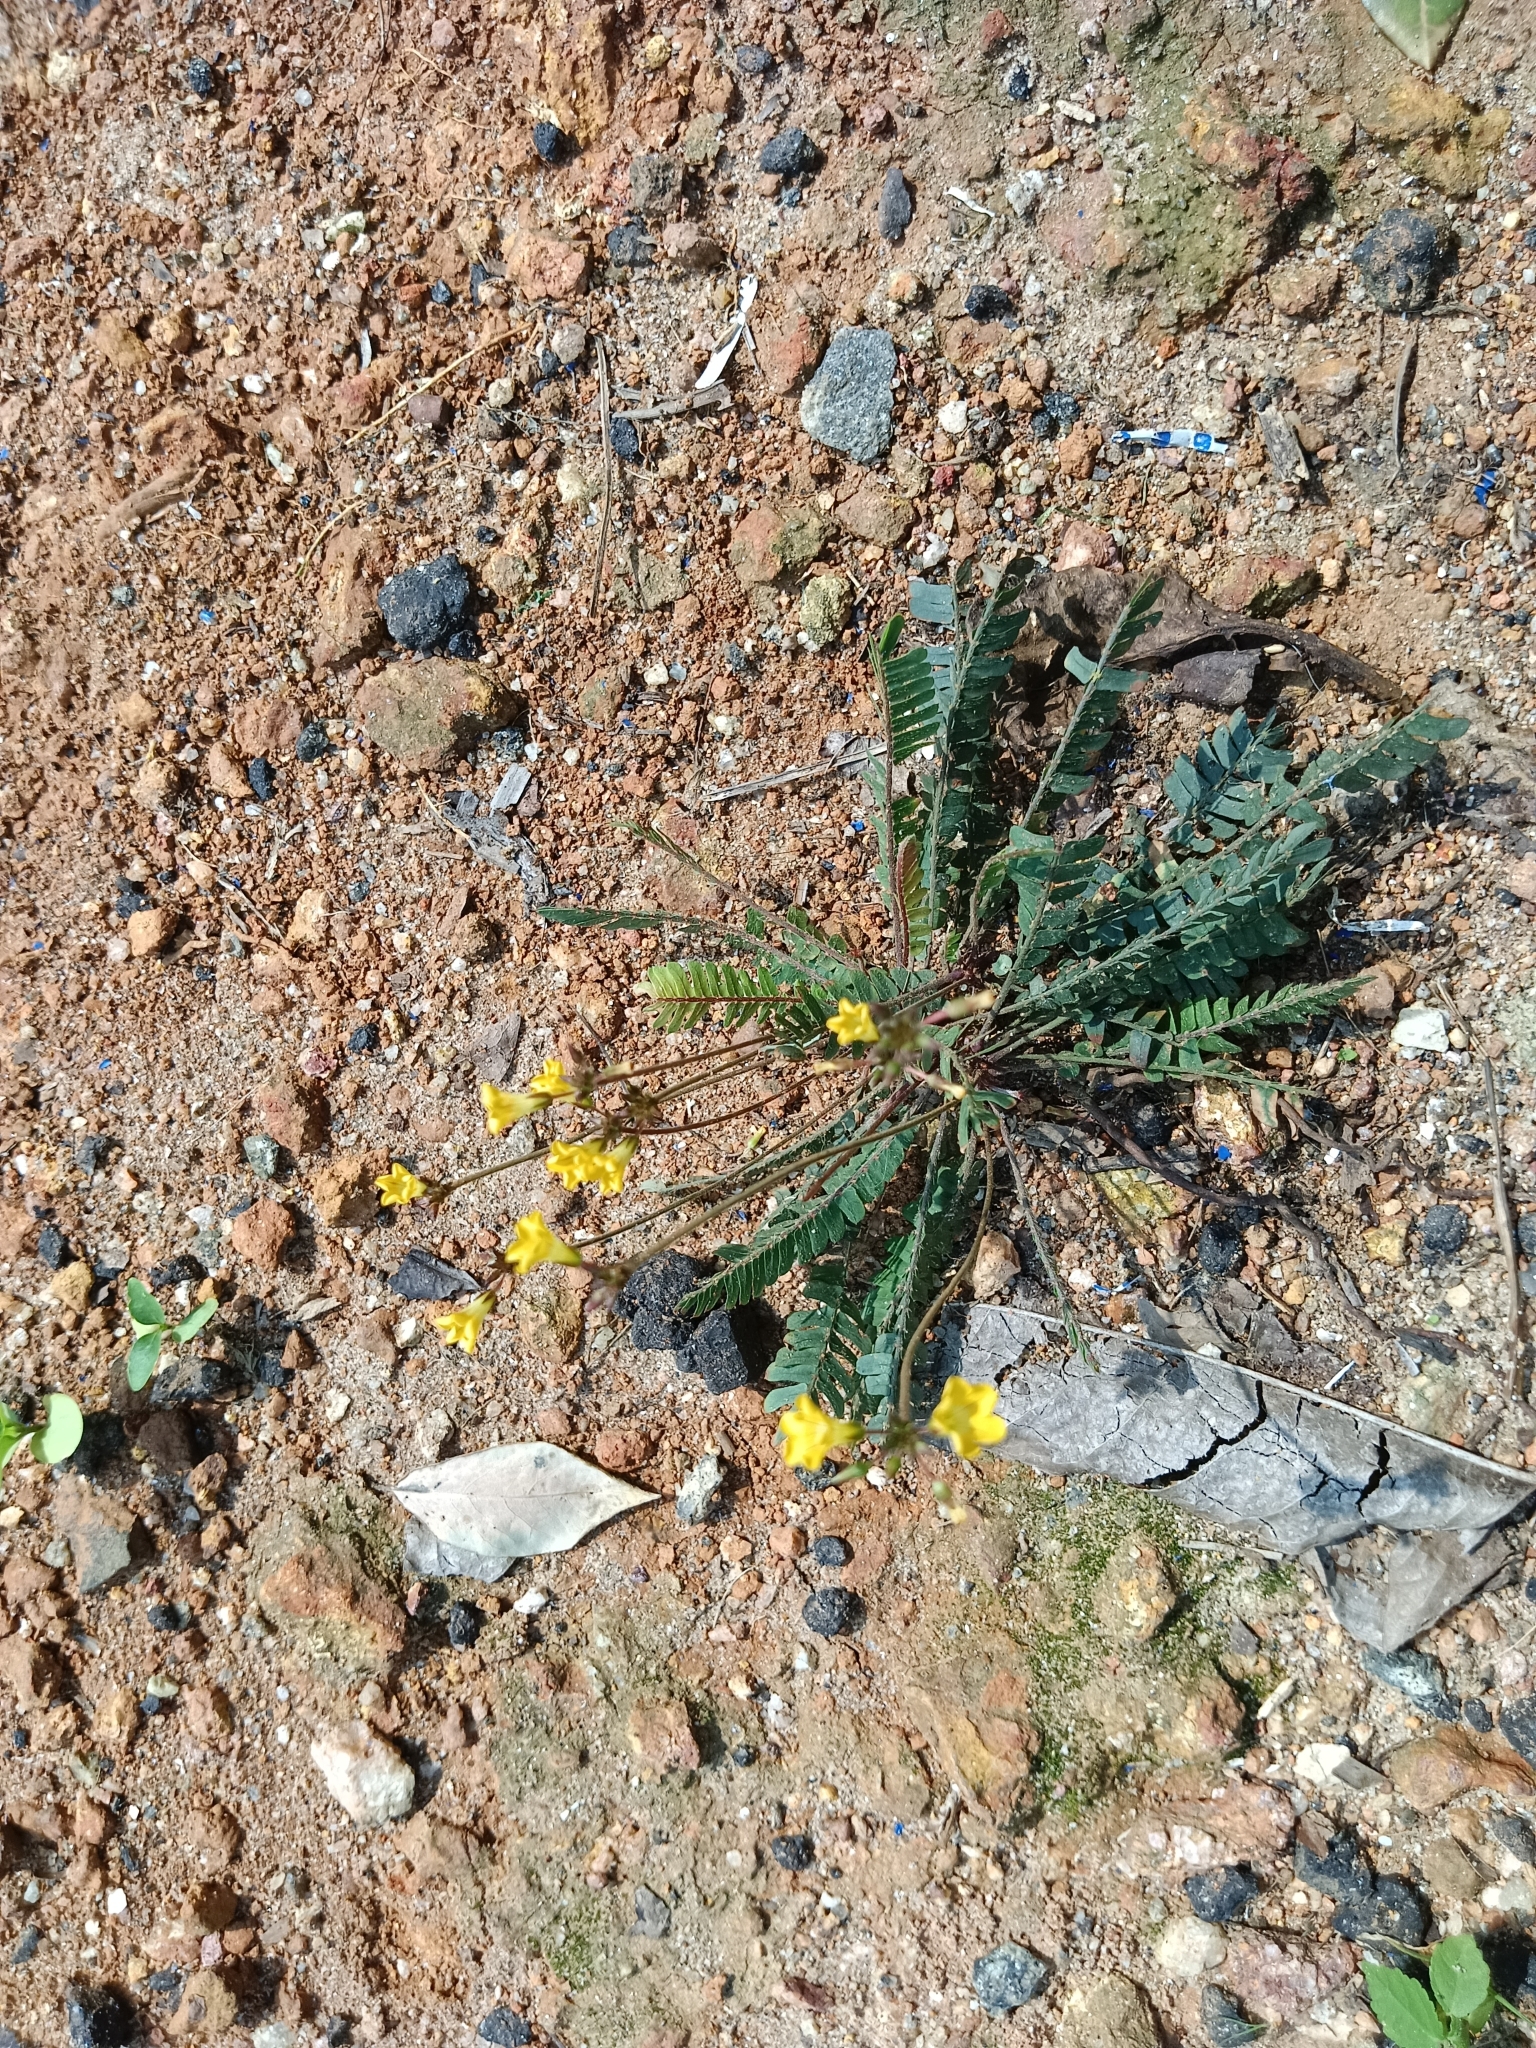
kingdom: Plantae
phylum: Tracheophyta
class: Magnoliopsida
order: Oxalidales
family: Oxalidaceae
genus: Biophytum
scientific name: Biophytum sensitivum
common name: Lifeplant
